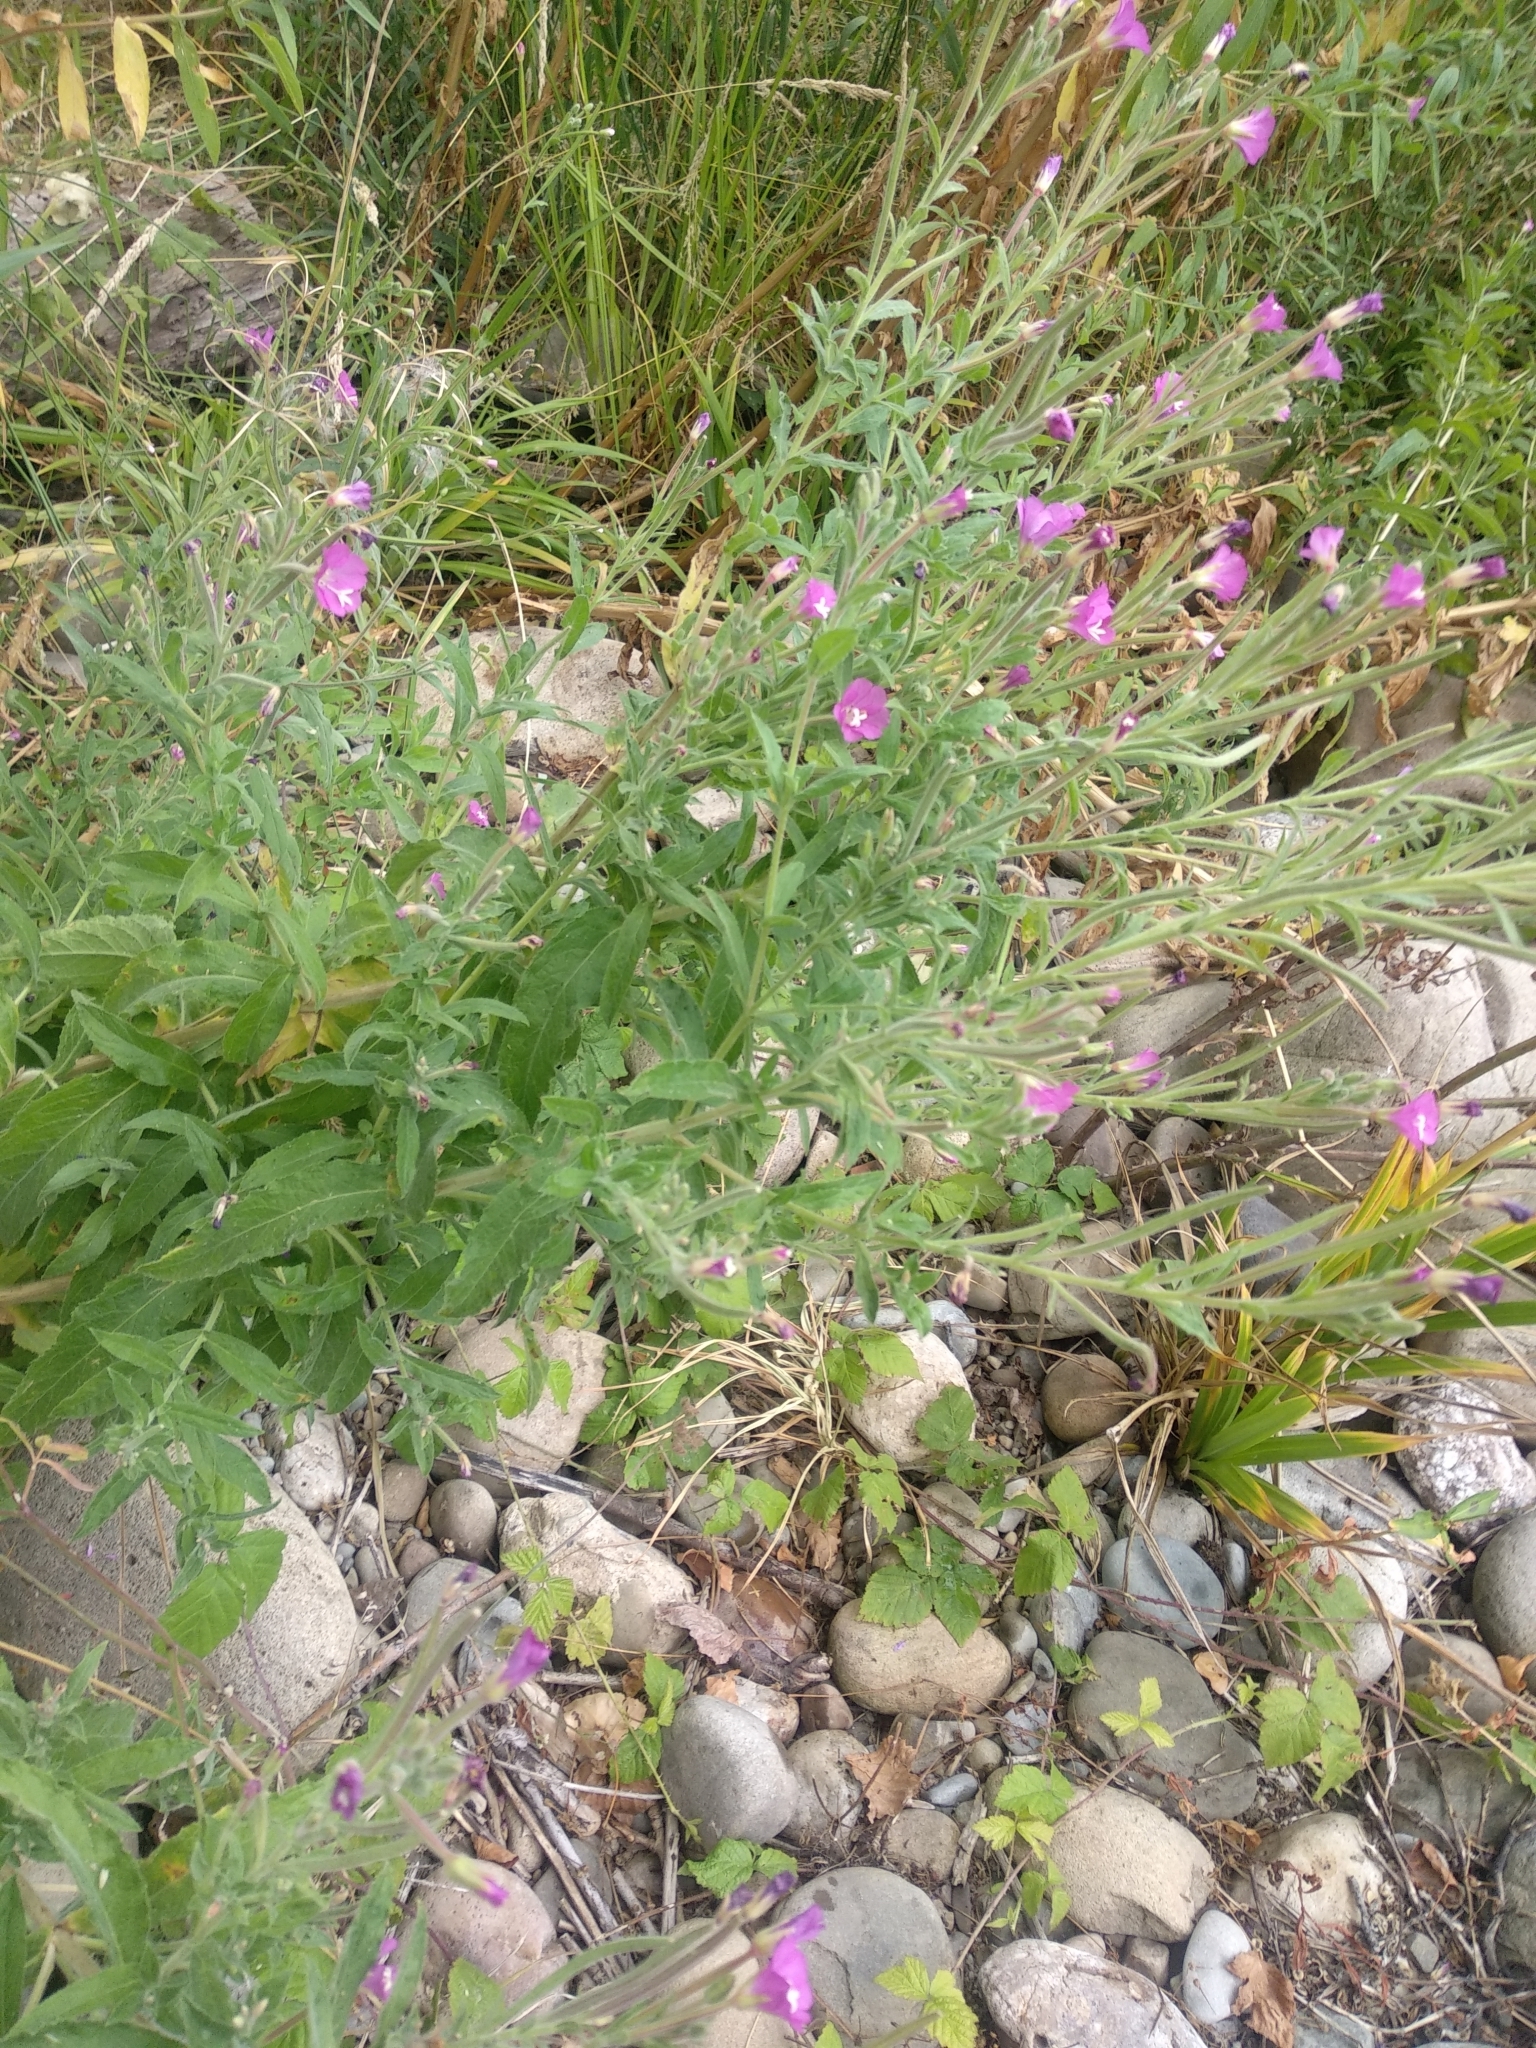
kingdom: Plantae
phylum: Tracheophyta
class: Magnoliopsida
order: Myrtales
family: Onagraceae
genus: Epilobium
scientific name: Epilobium hirsutum
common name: Great willowherb
